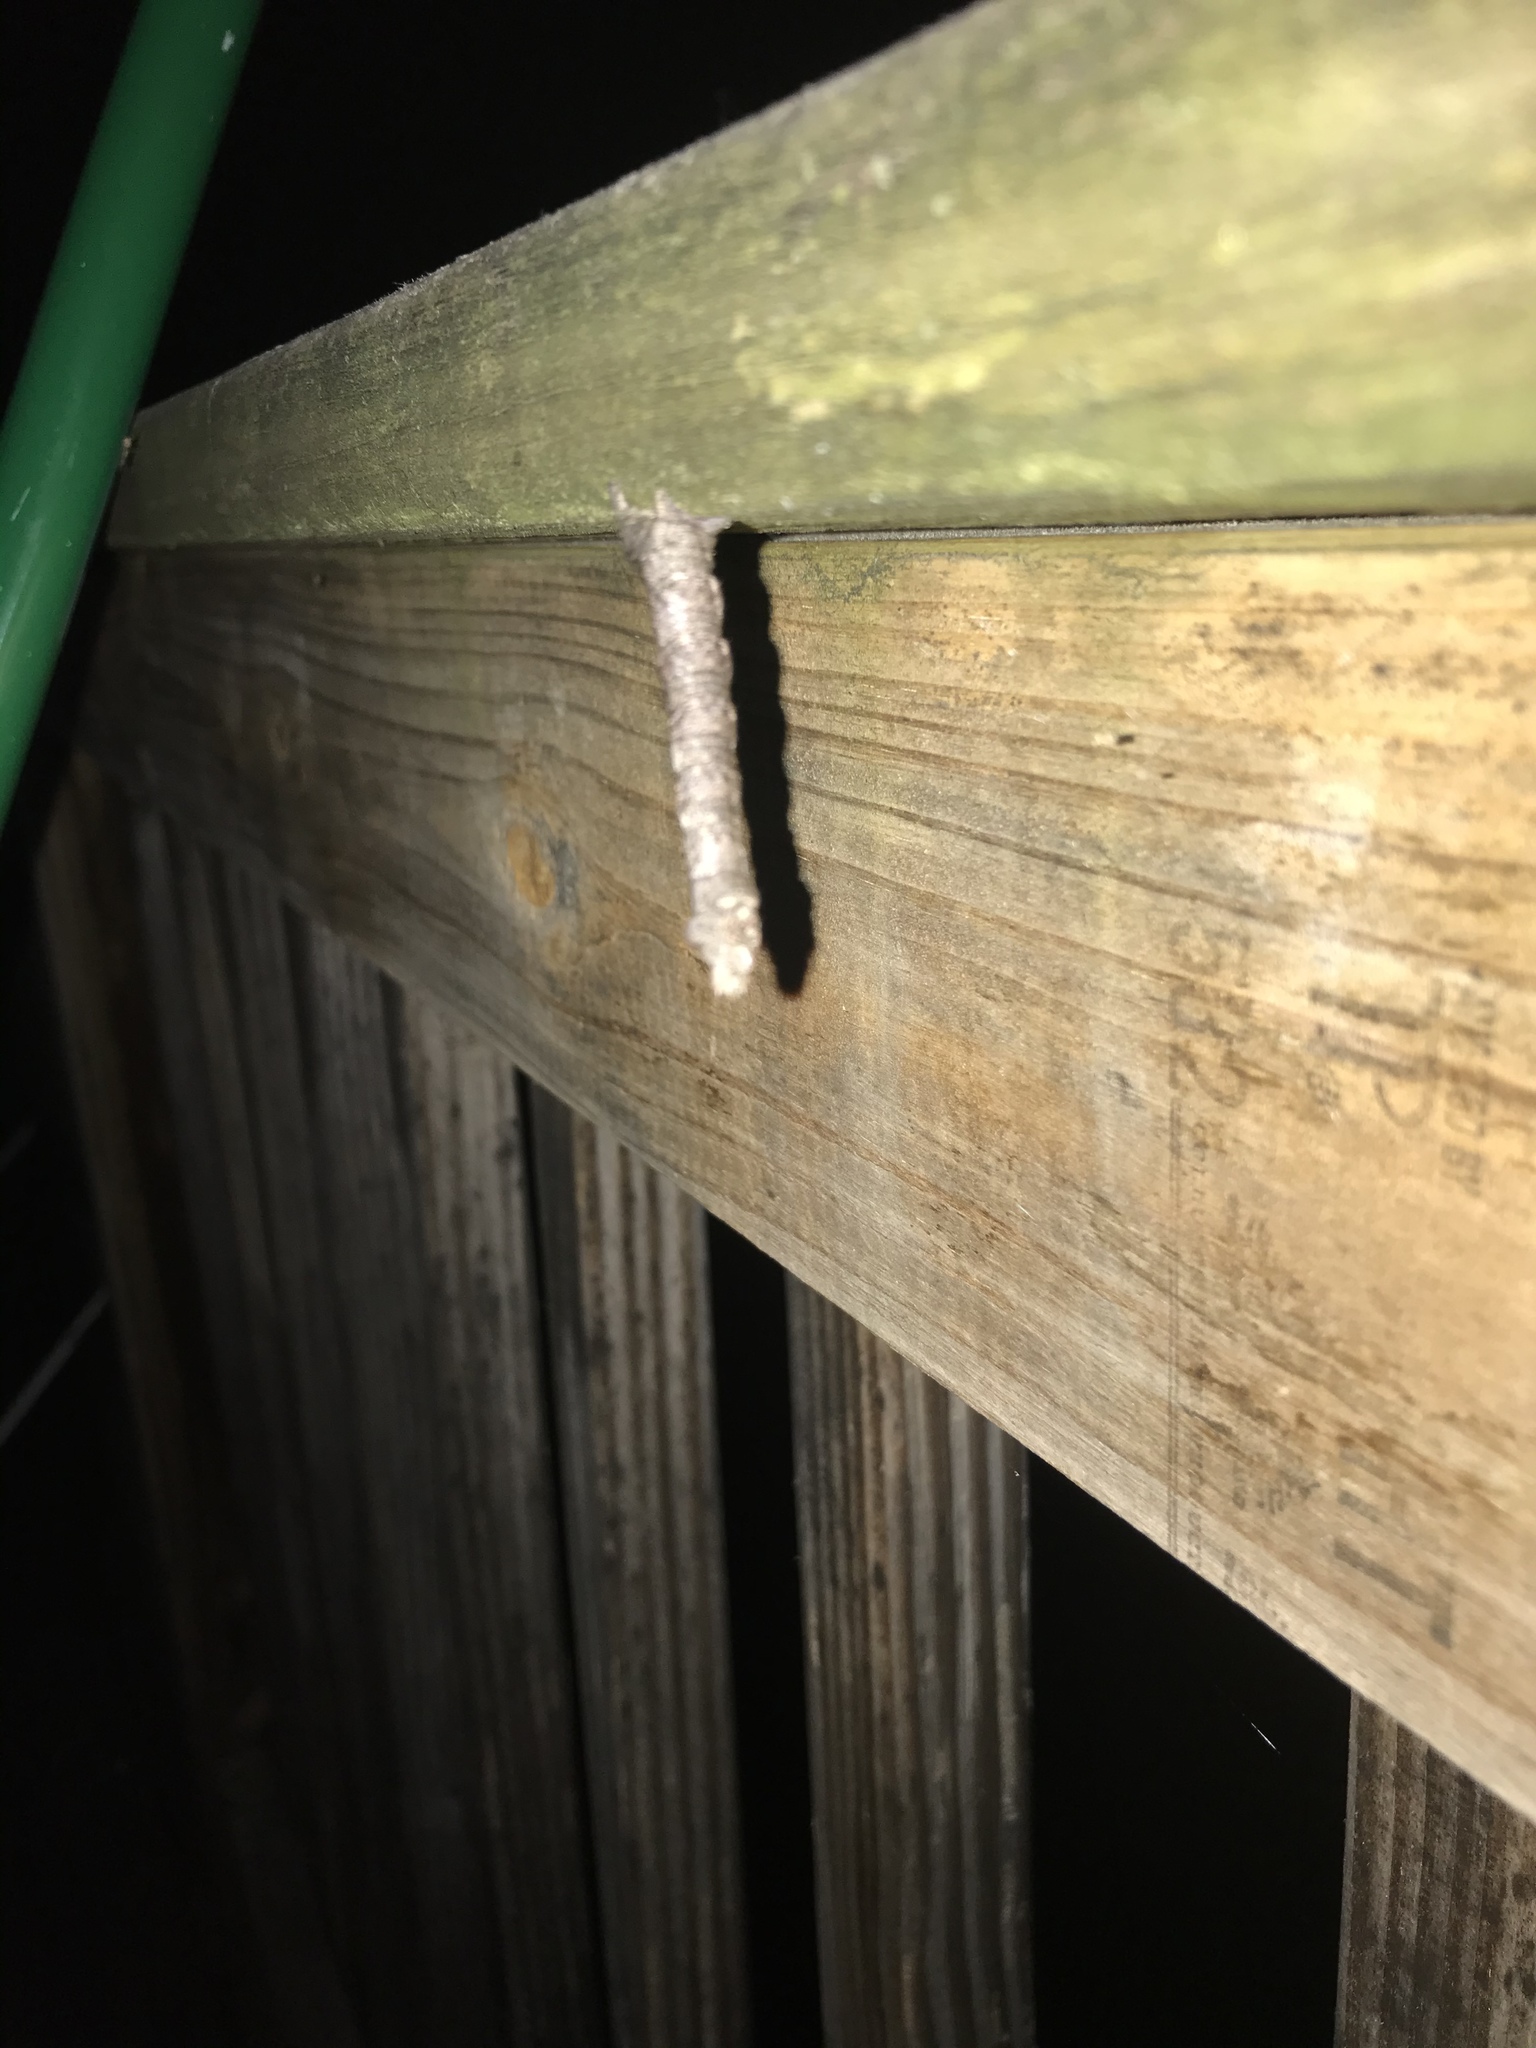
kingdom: Animalia
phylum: Arthropoda
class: Insecta
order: Lepidoptera
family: Geometridae
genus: Biston
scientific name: Biston betularia
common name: Peppered moth
